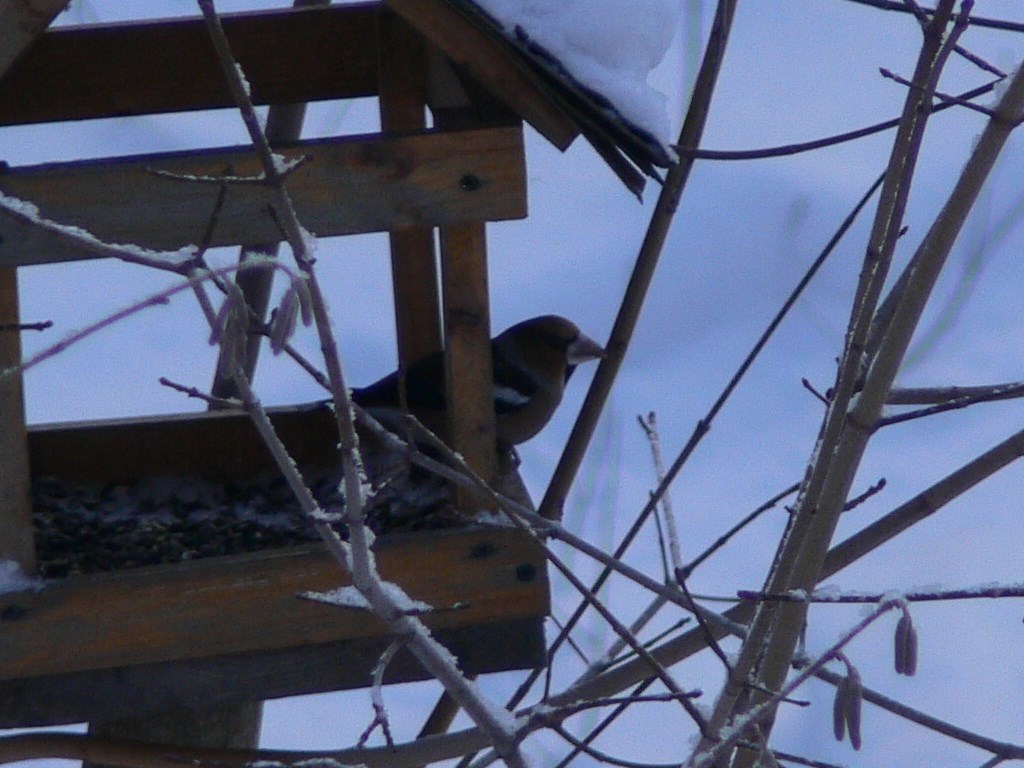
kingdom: Animalia
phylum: Chordata
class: Aves
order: Passeriformes
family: Fringillidae
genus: Coccothraustes
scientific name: Coccothraustes coccothraustes
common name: Hawfinch
